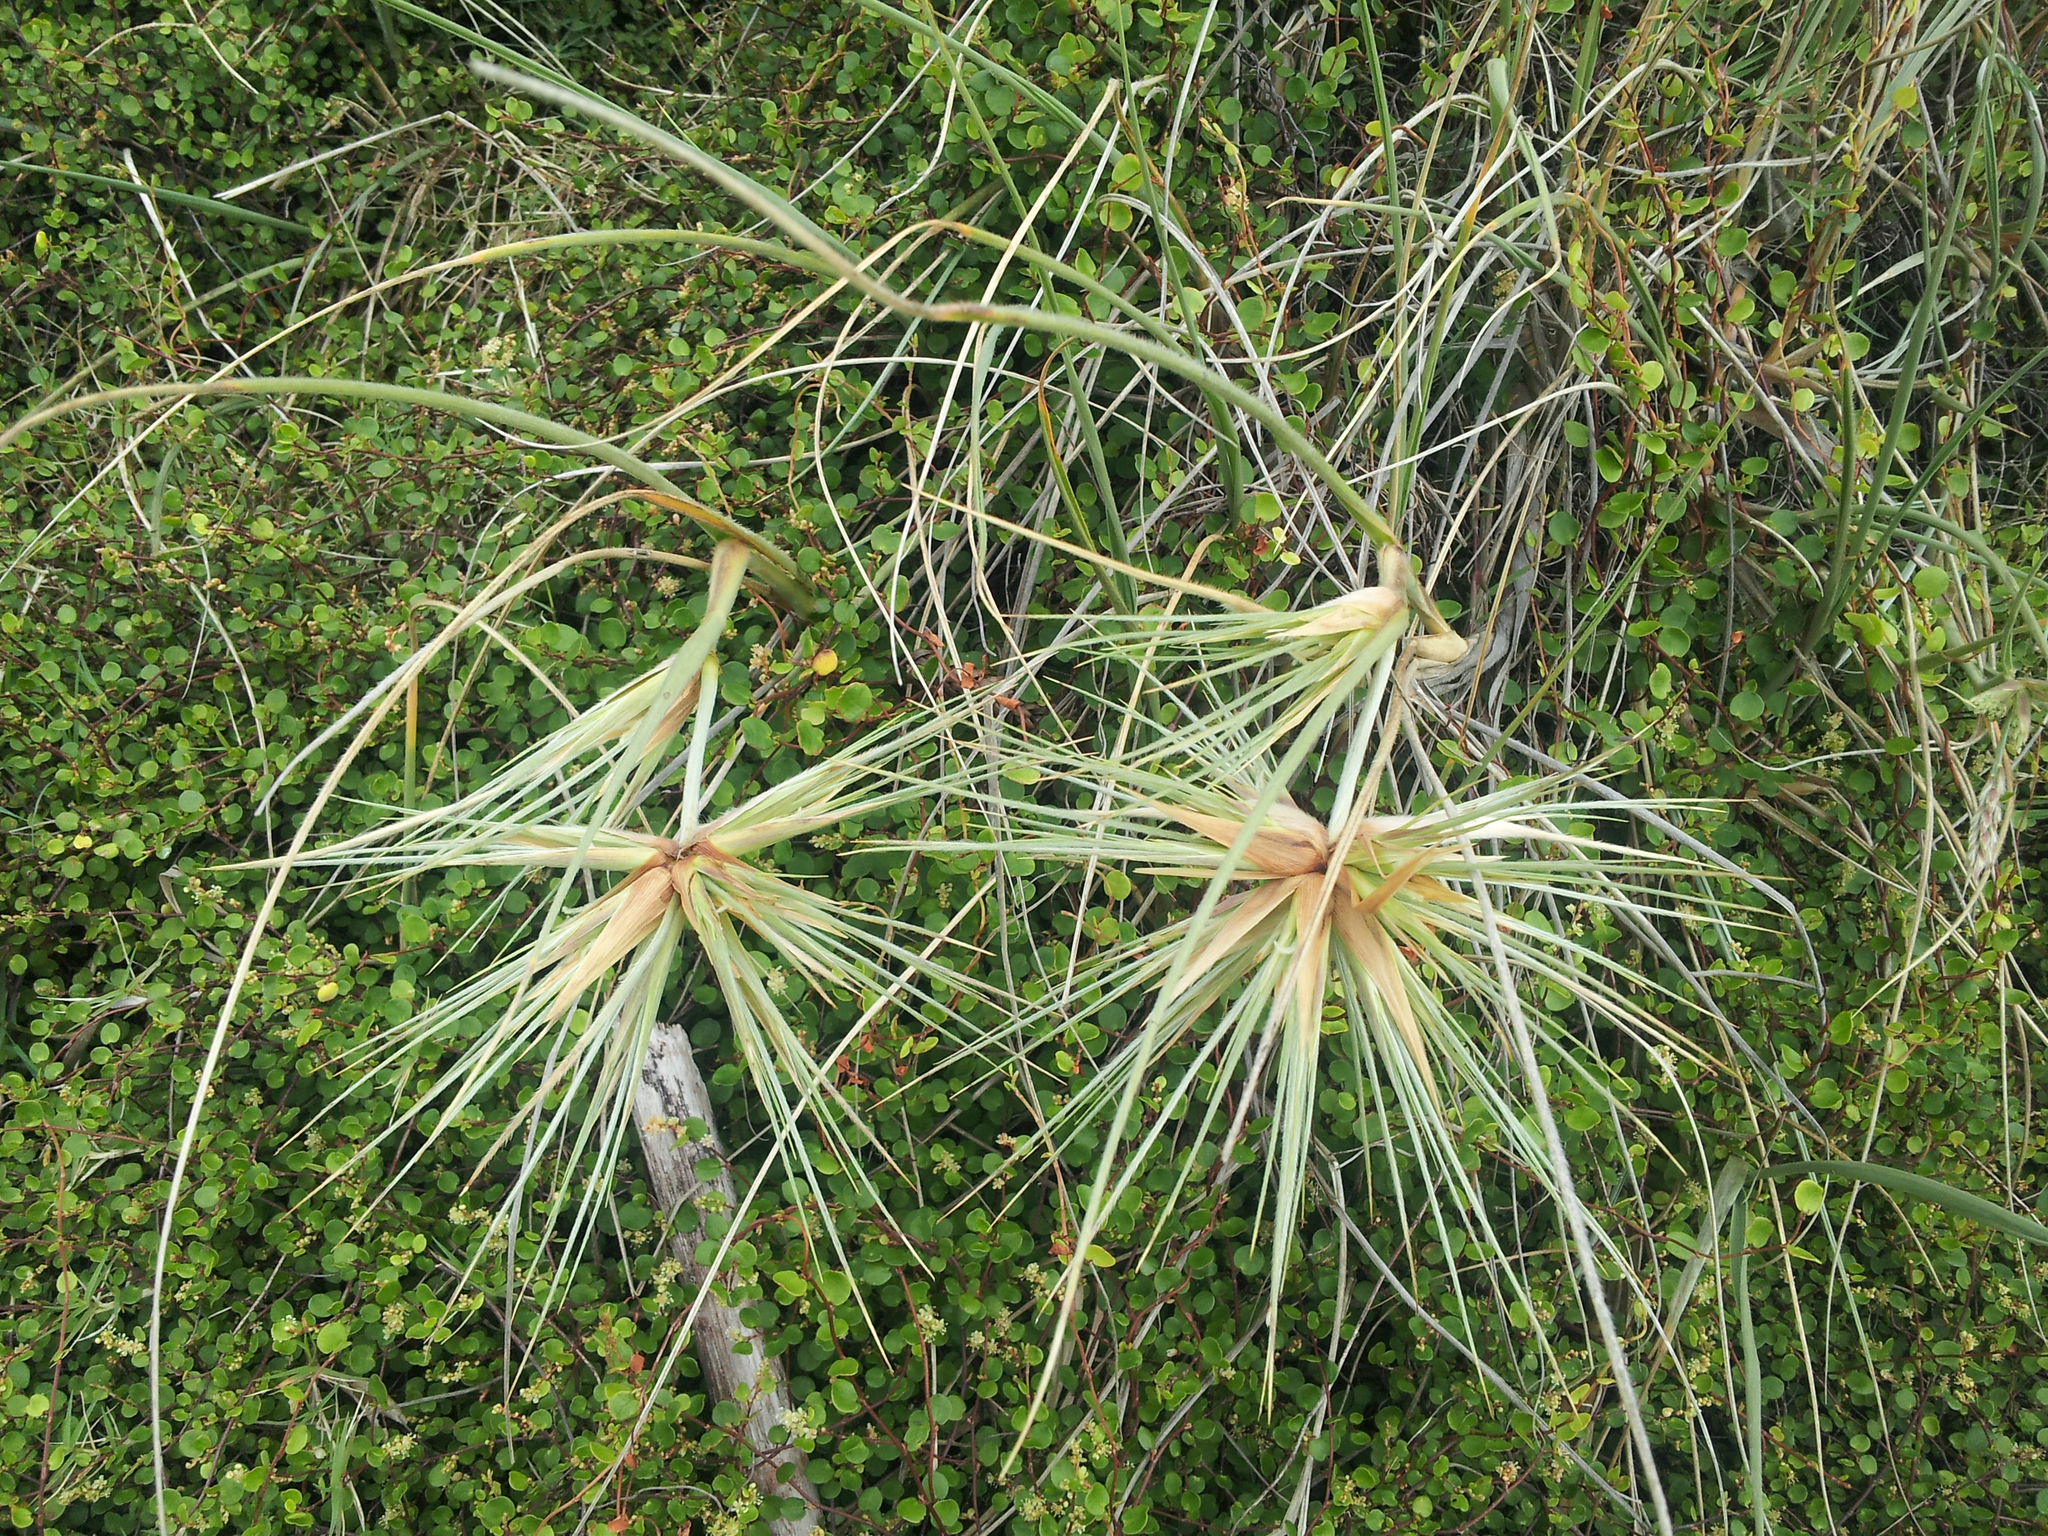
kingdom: Plantae
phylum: Tracheophyta
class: Liliopsida
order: Poales
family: Poaceae
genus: Spinifex
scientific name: Spinifex sericeus
